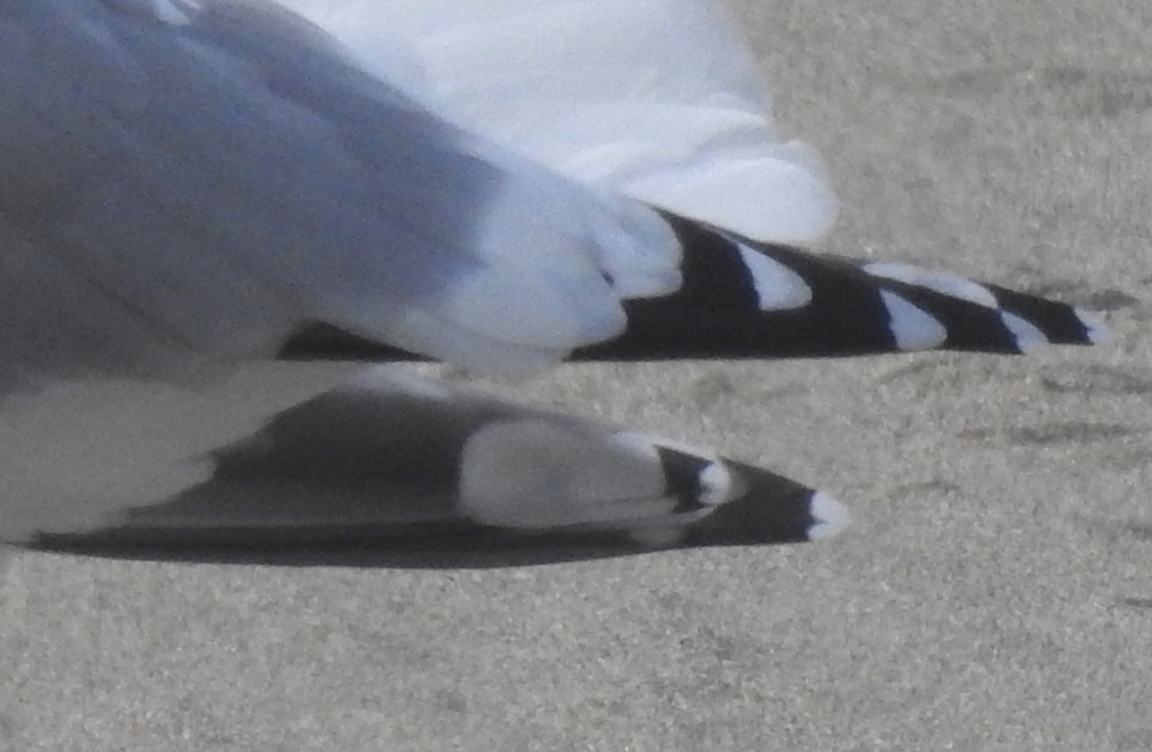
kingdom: Animalia
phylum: Chordata
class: Aves
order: Charadriiformes
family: Laridae
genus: Larus
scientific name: Larus glaucoides
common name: Iceland gull
